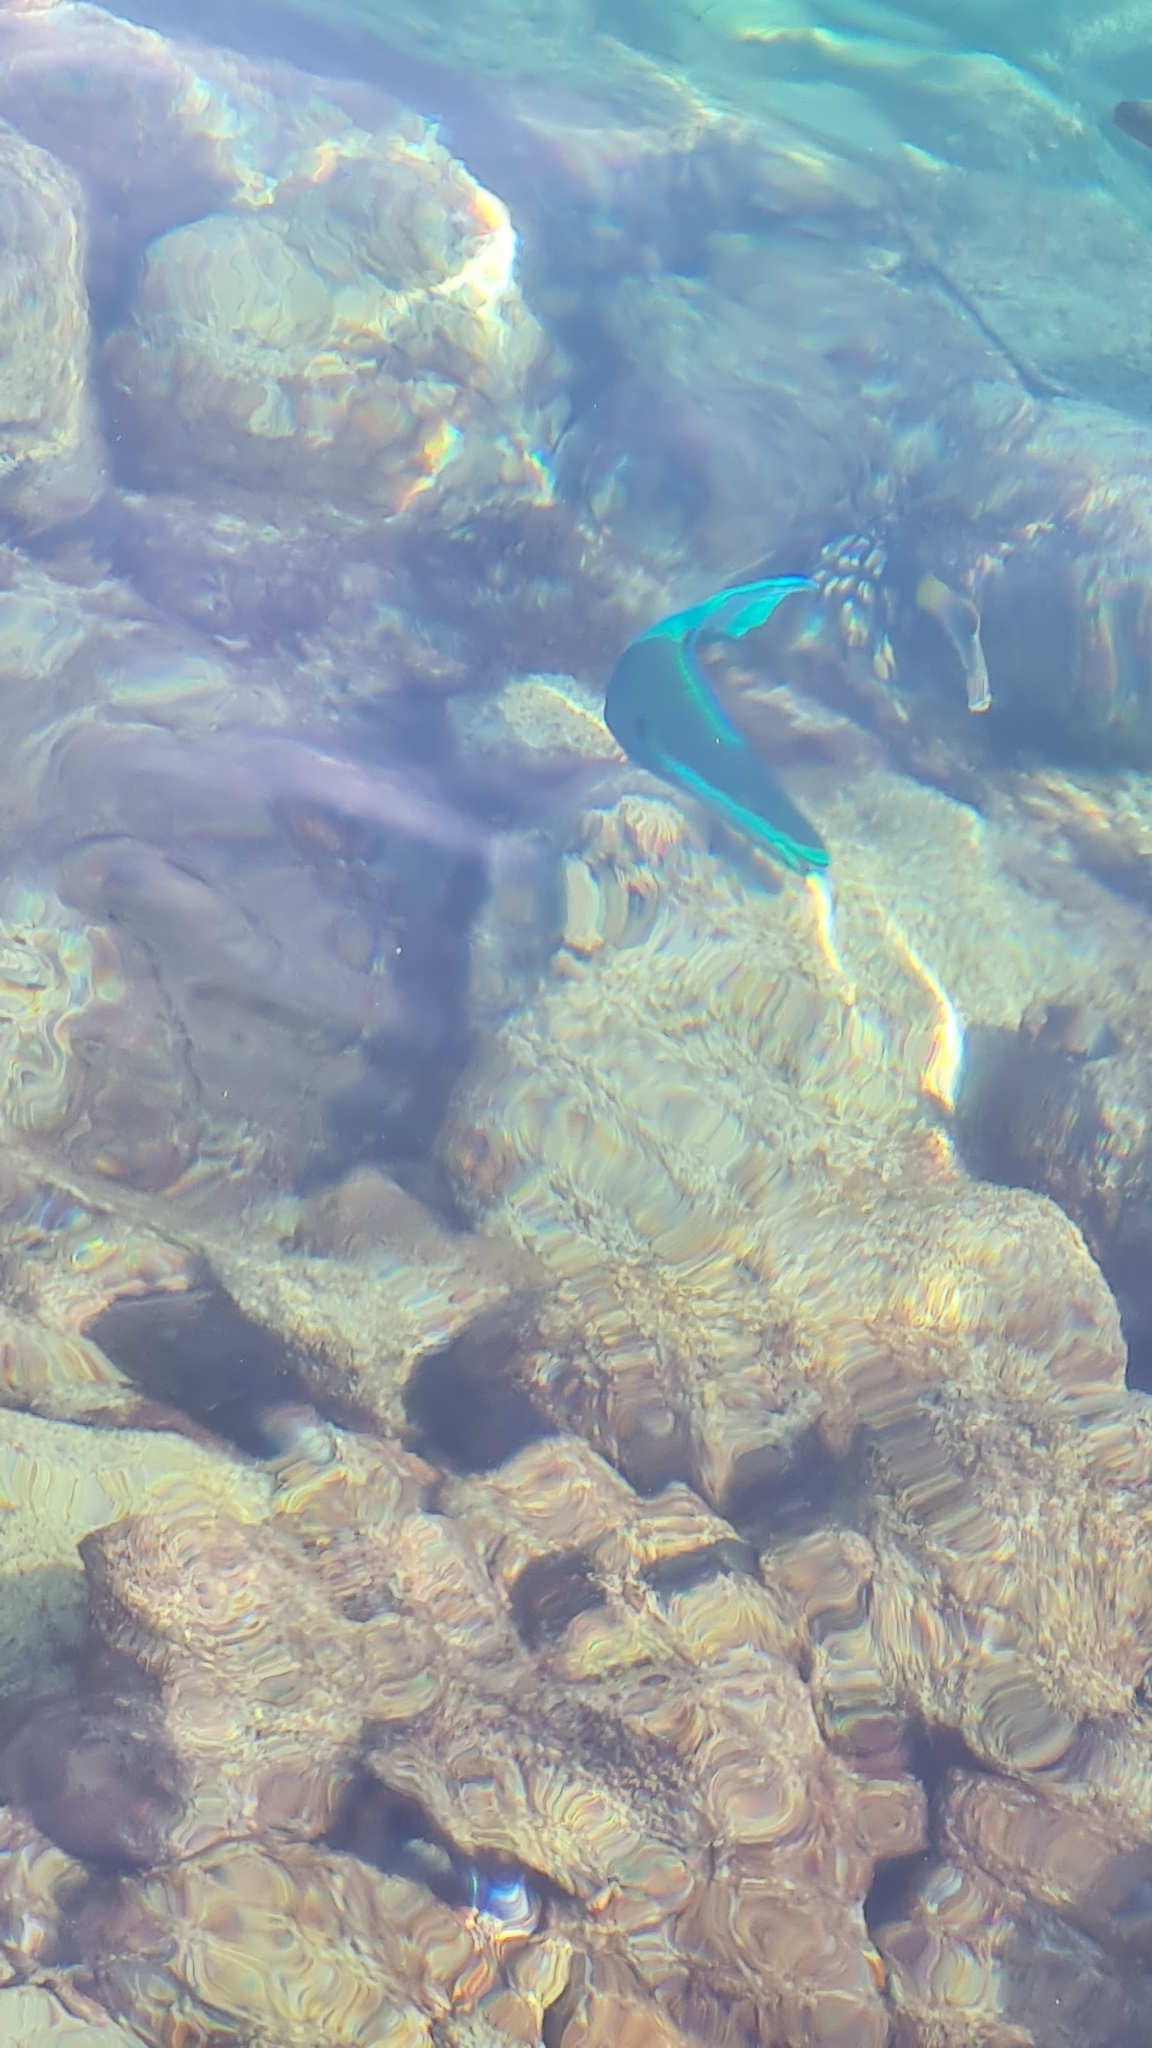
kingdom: Animalia
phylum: Chordata
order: Perciformes
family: Scaridae
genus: Scarus
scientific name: Scarus
